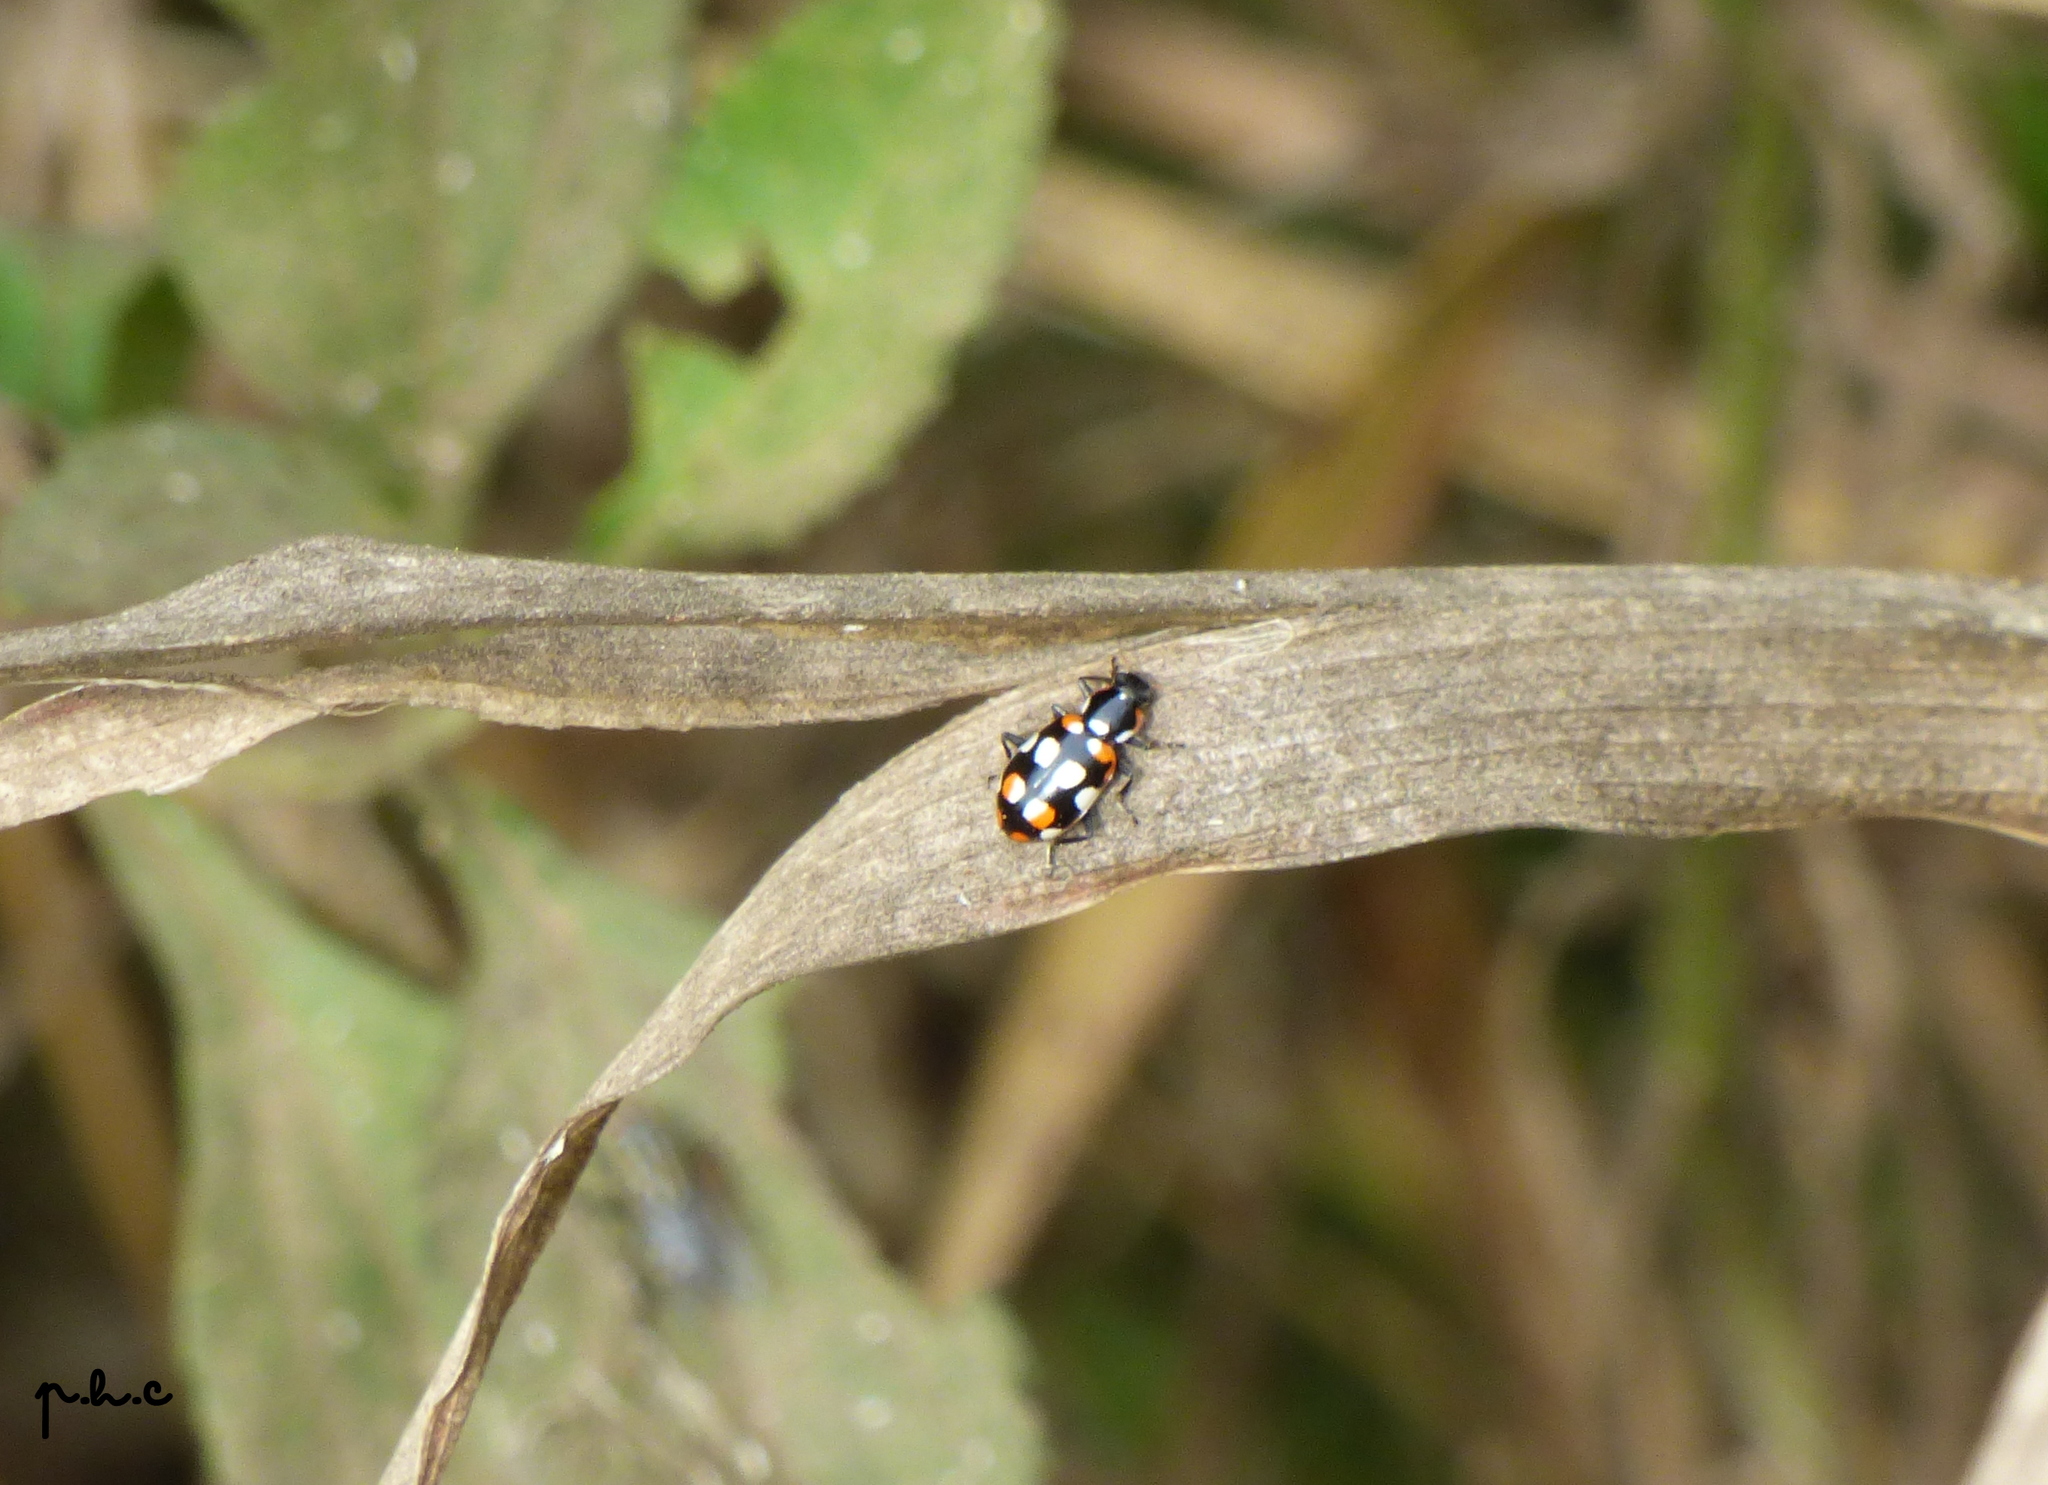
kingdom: Animalia
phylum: Arthropoda
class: Insecta
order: Coleoptera
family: Coccinellidae
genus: Eriopis
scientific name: Eriopis connexa
